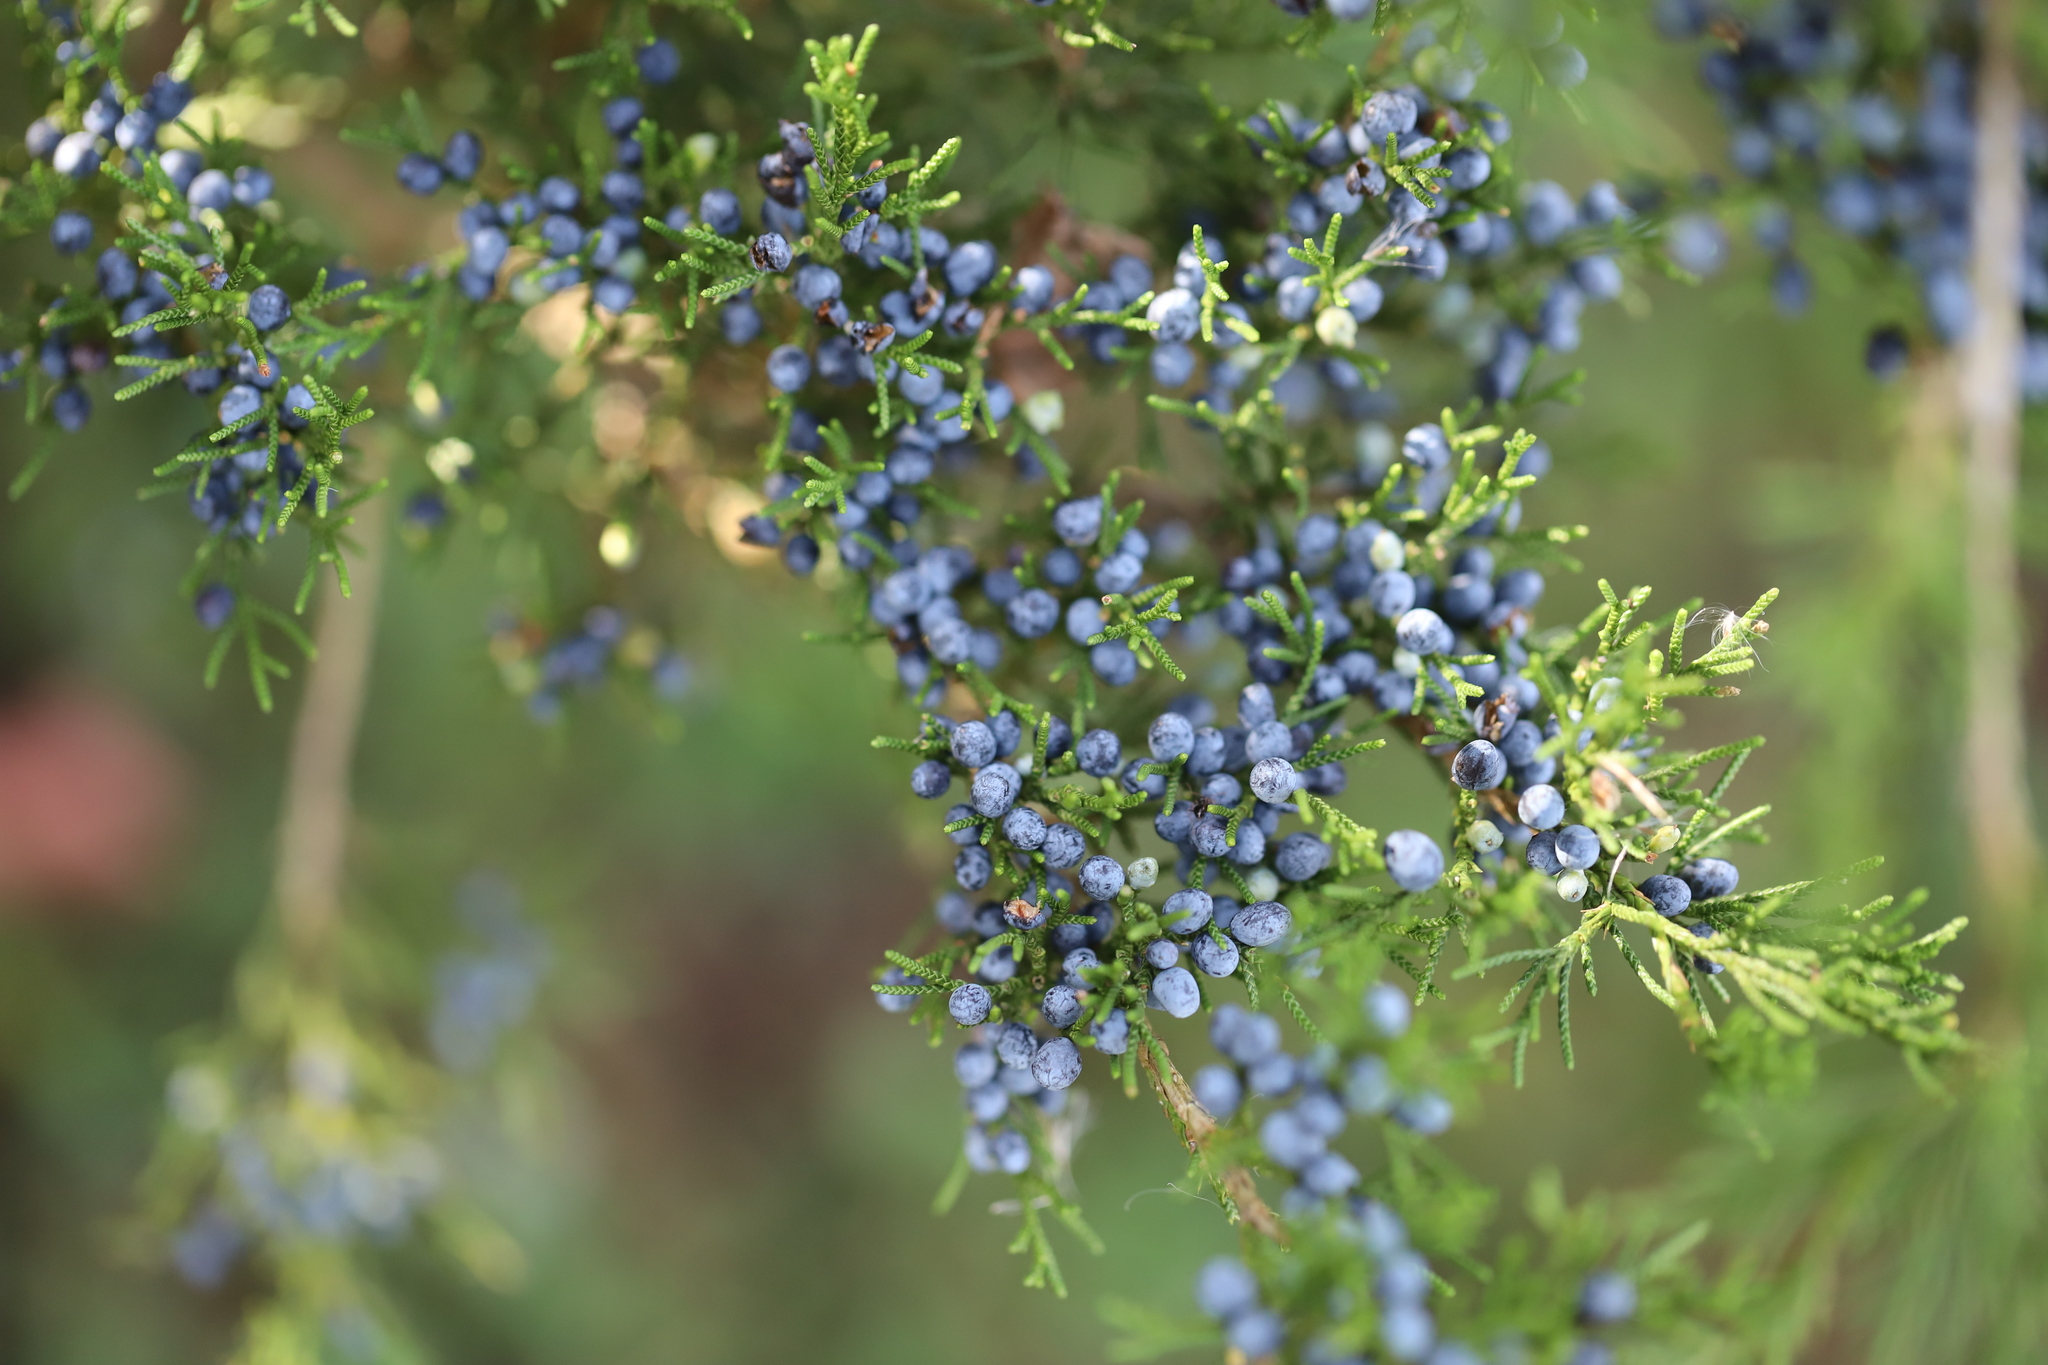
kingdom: Plantae
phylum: Tracheophyta
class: Pinopsida
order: Pinales
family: Cupressaceae
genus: Juniperus
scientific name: Juniperus virginiana
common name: Red juniper
